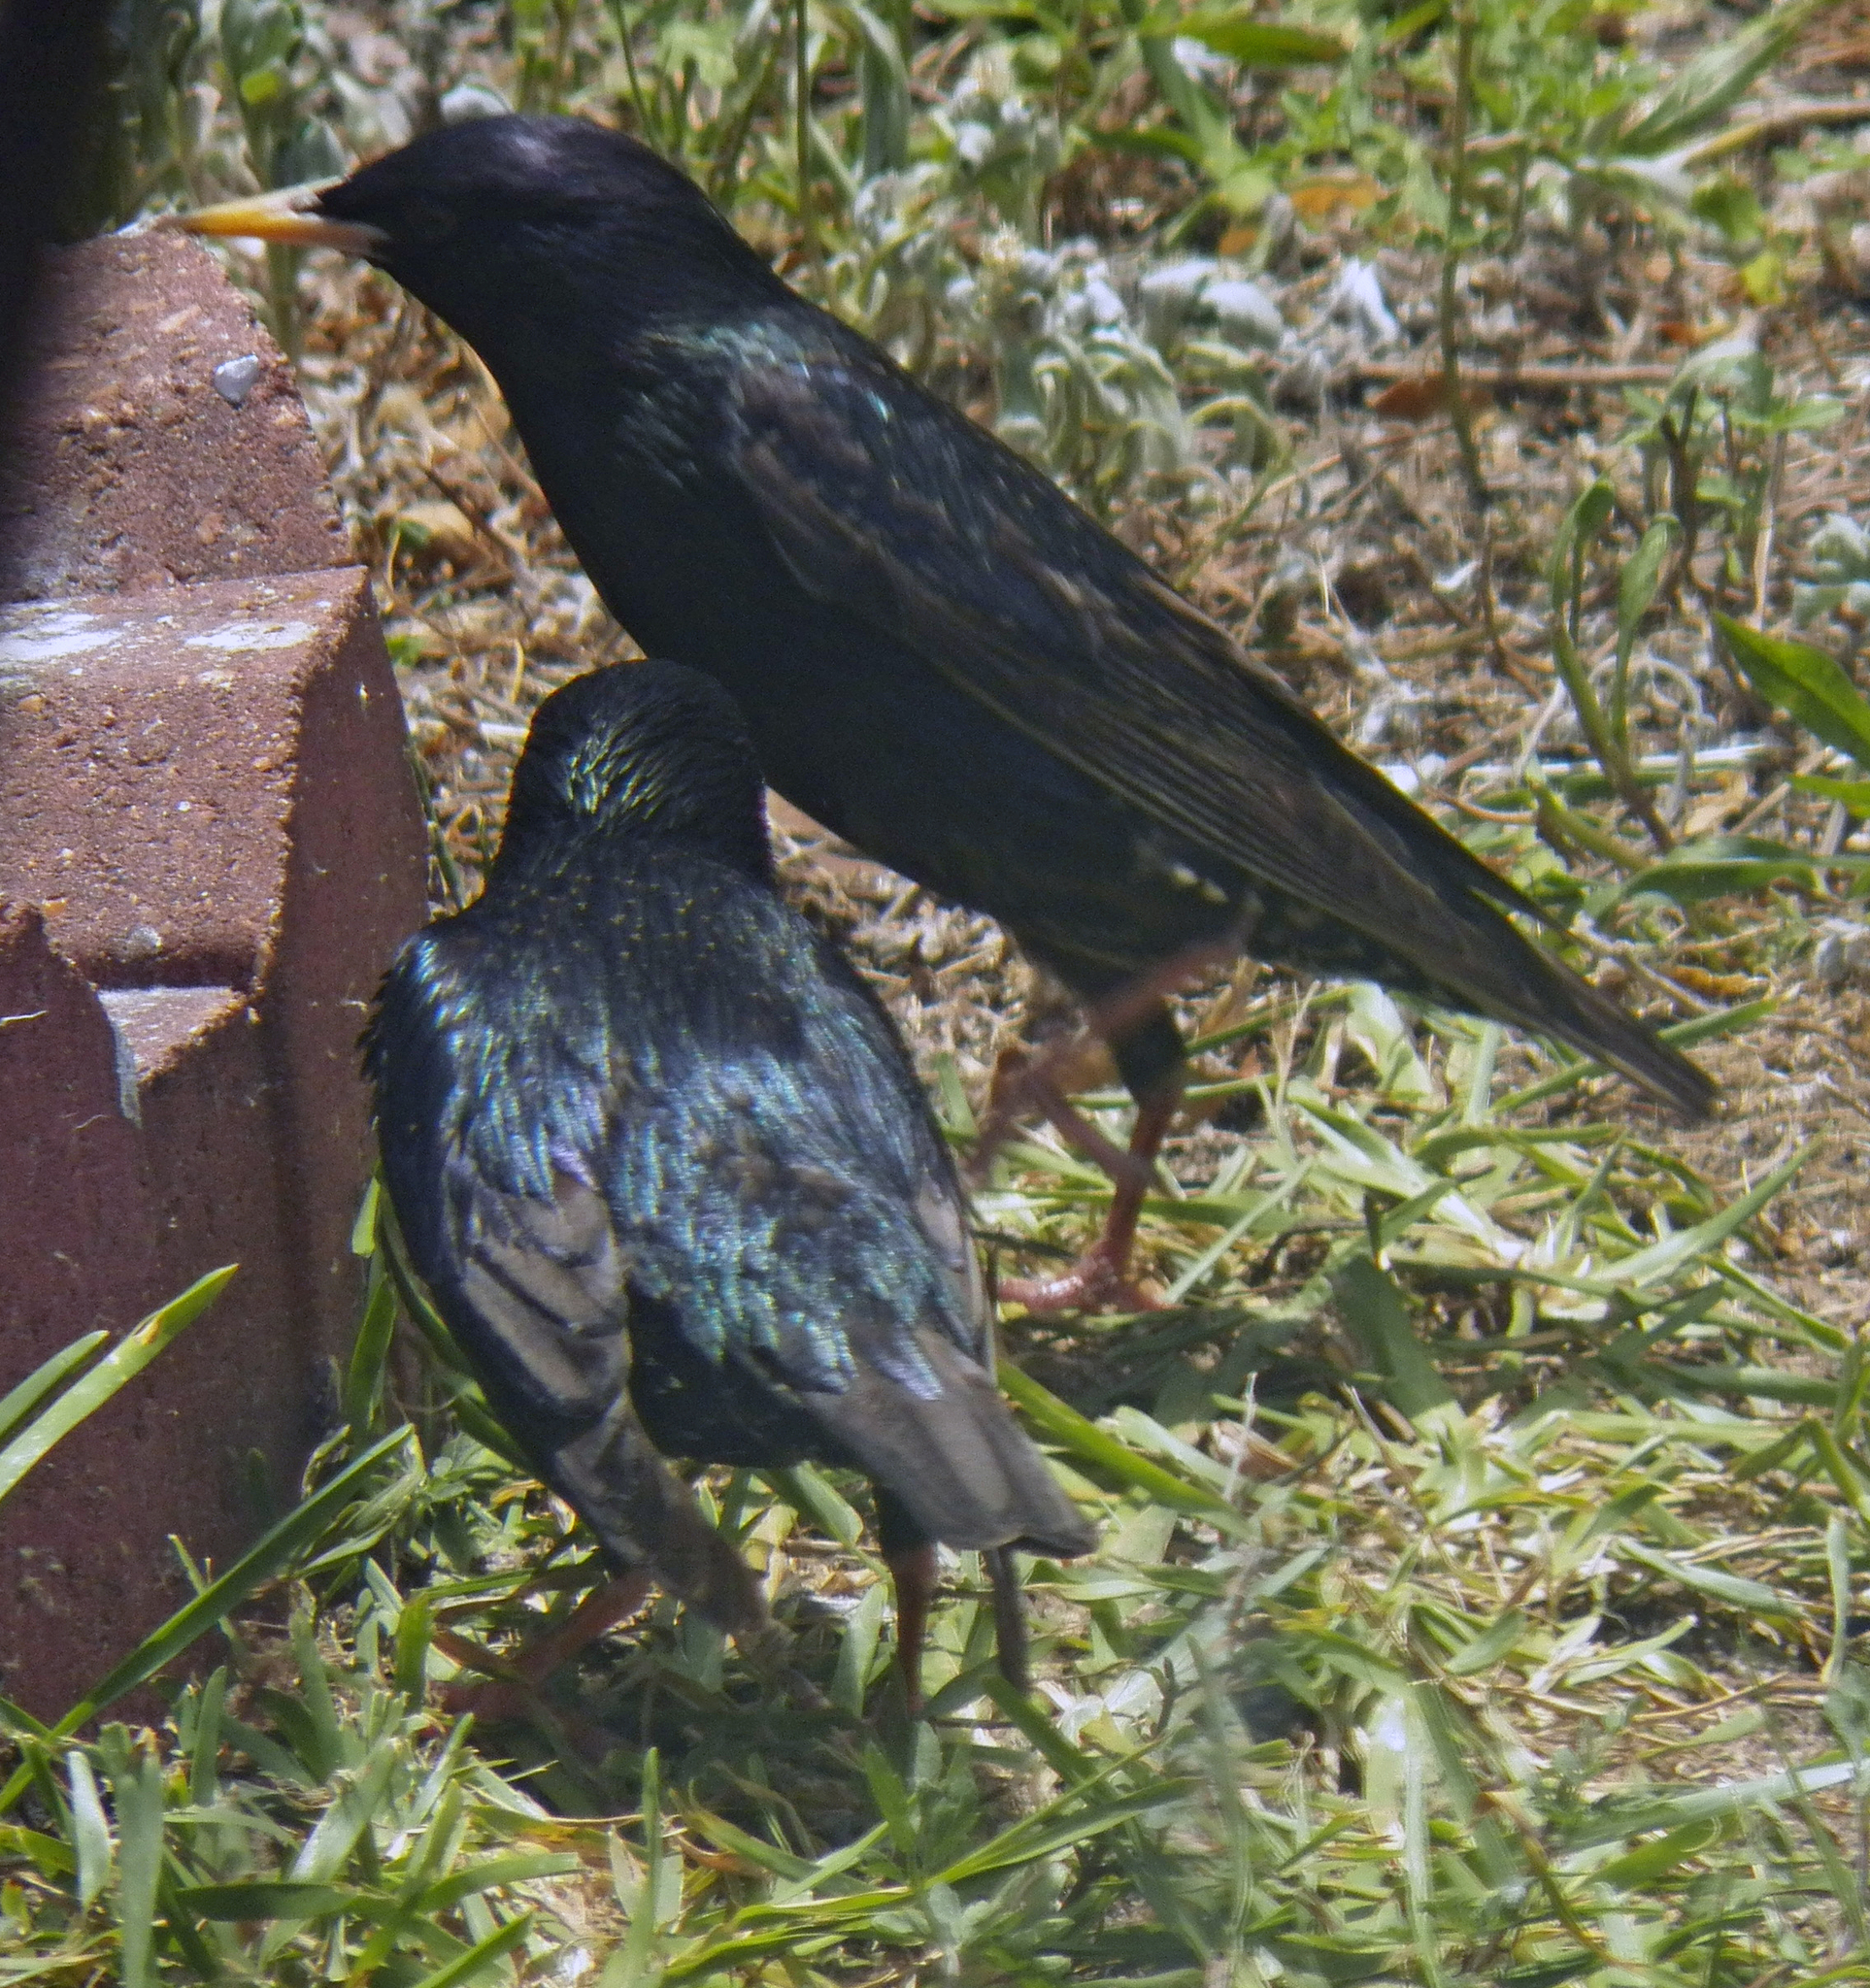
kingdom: Animalia
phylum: Chordata
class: Aves
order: Passeriformes
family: Sturnidae
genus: Sturnus
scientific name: Sturnus vulgaris
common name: Common starling
